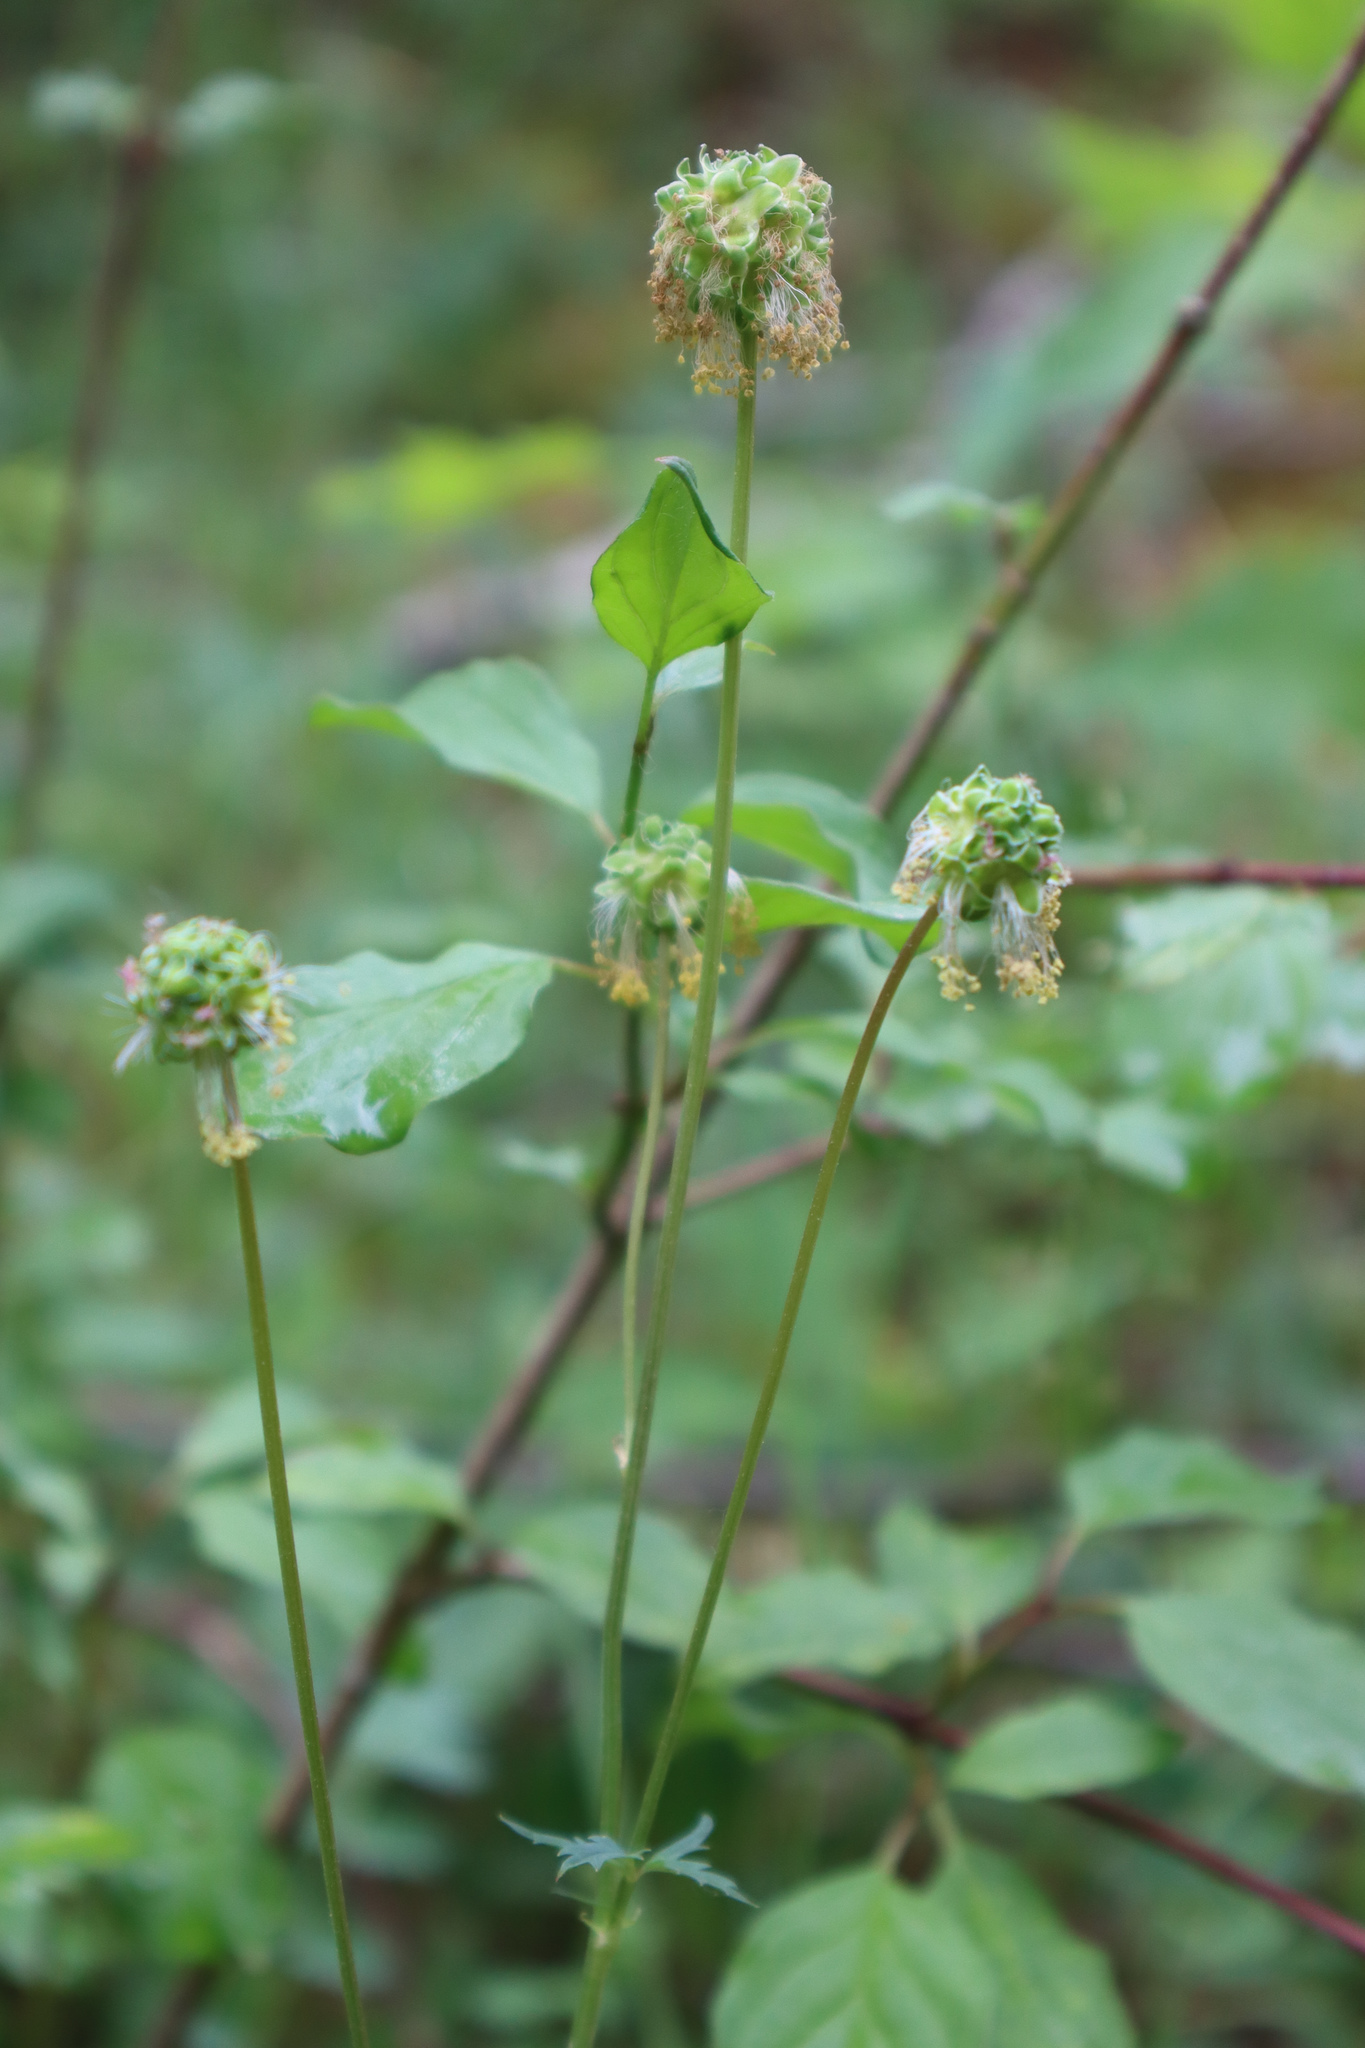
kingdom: Plantae
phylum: Tracheophyta
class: Magnoliopsida
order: Rosales
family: Rosaceae
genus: Poterium
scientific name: Poterium sanguisorba
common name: Salad burnet
